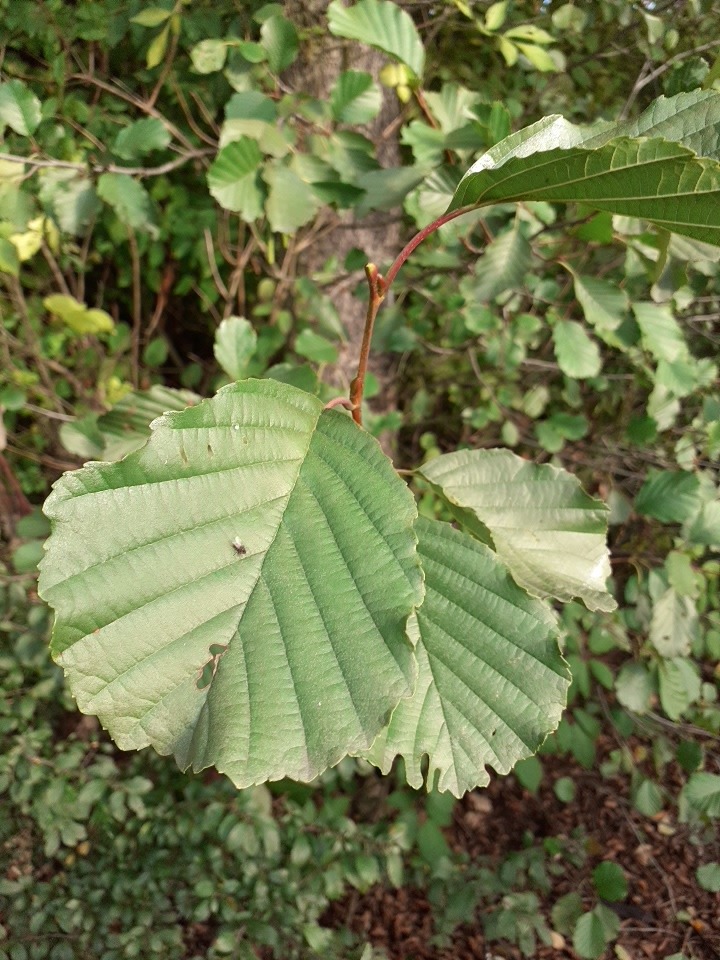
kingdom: Plantae
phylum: Tracheophyta
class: Magnoliopsida
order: Fagales
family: Betulaceae
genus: Alnus
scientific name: Alnus glutinosa
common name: Black alder
